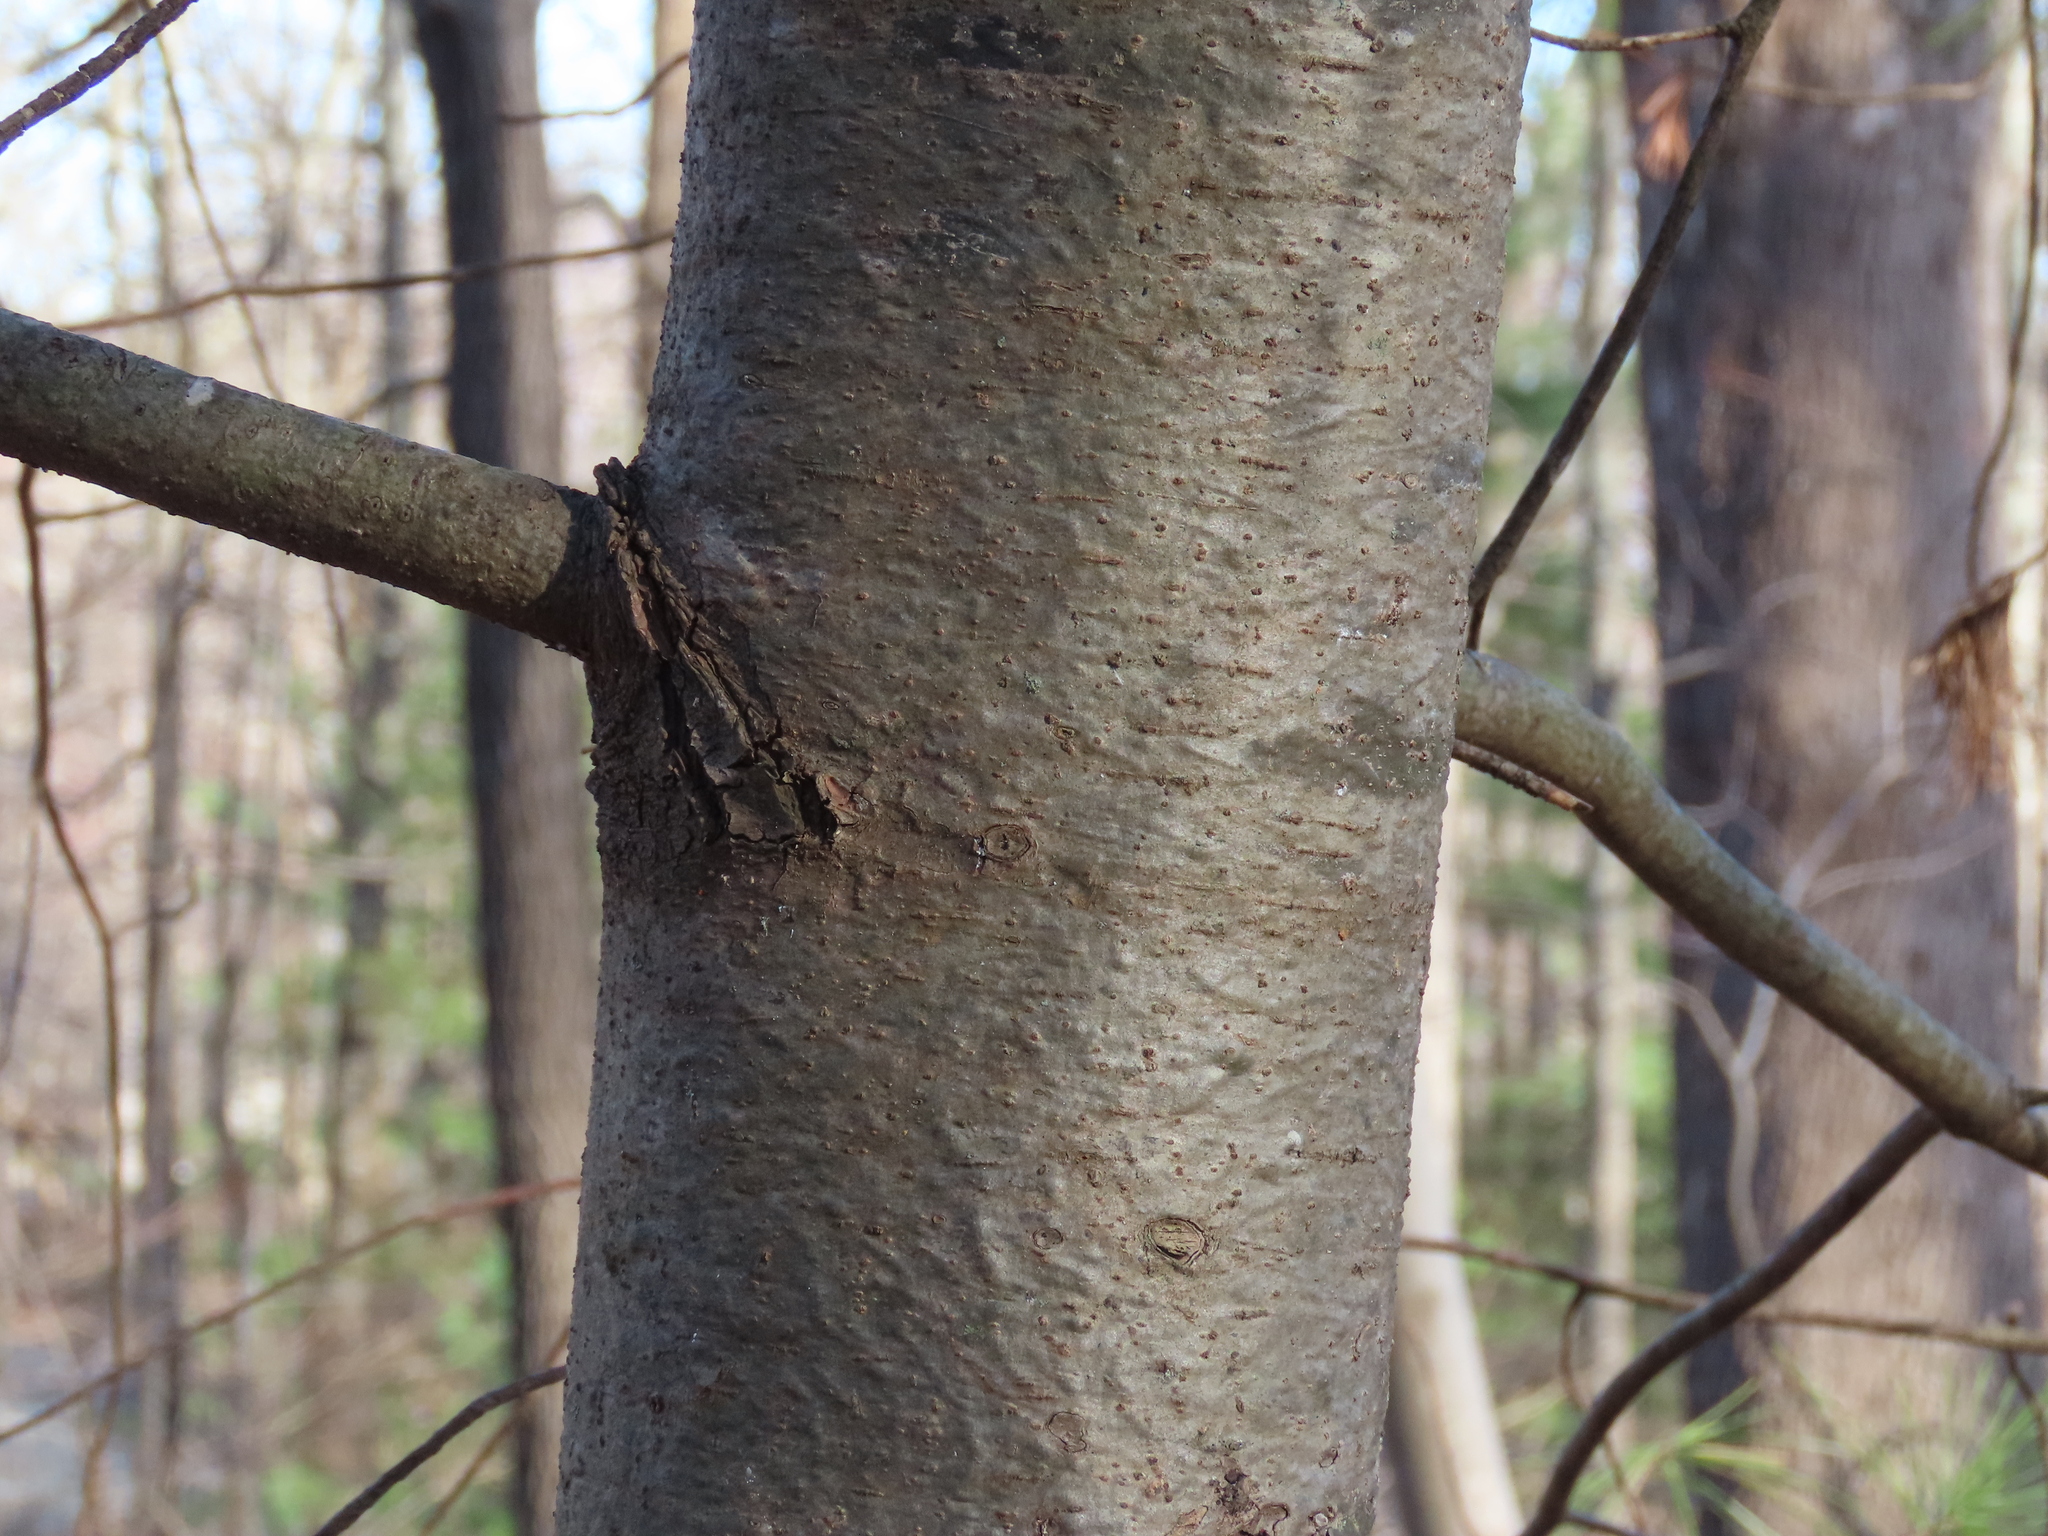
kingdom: Plantae
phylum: Tracheophyta
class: Pinopsida
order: Pinales
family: Pinaceae
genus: Pinus
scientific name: Pinus strobus
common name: Weymouth pine
